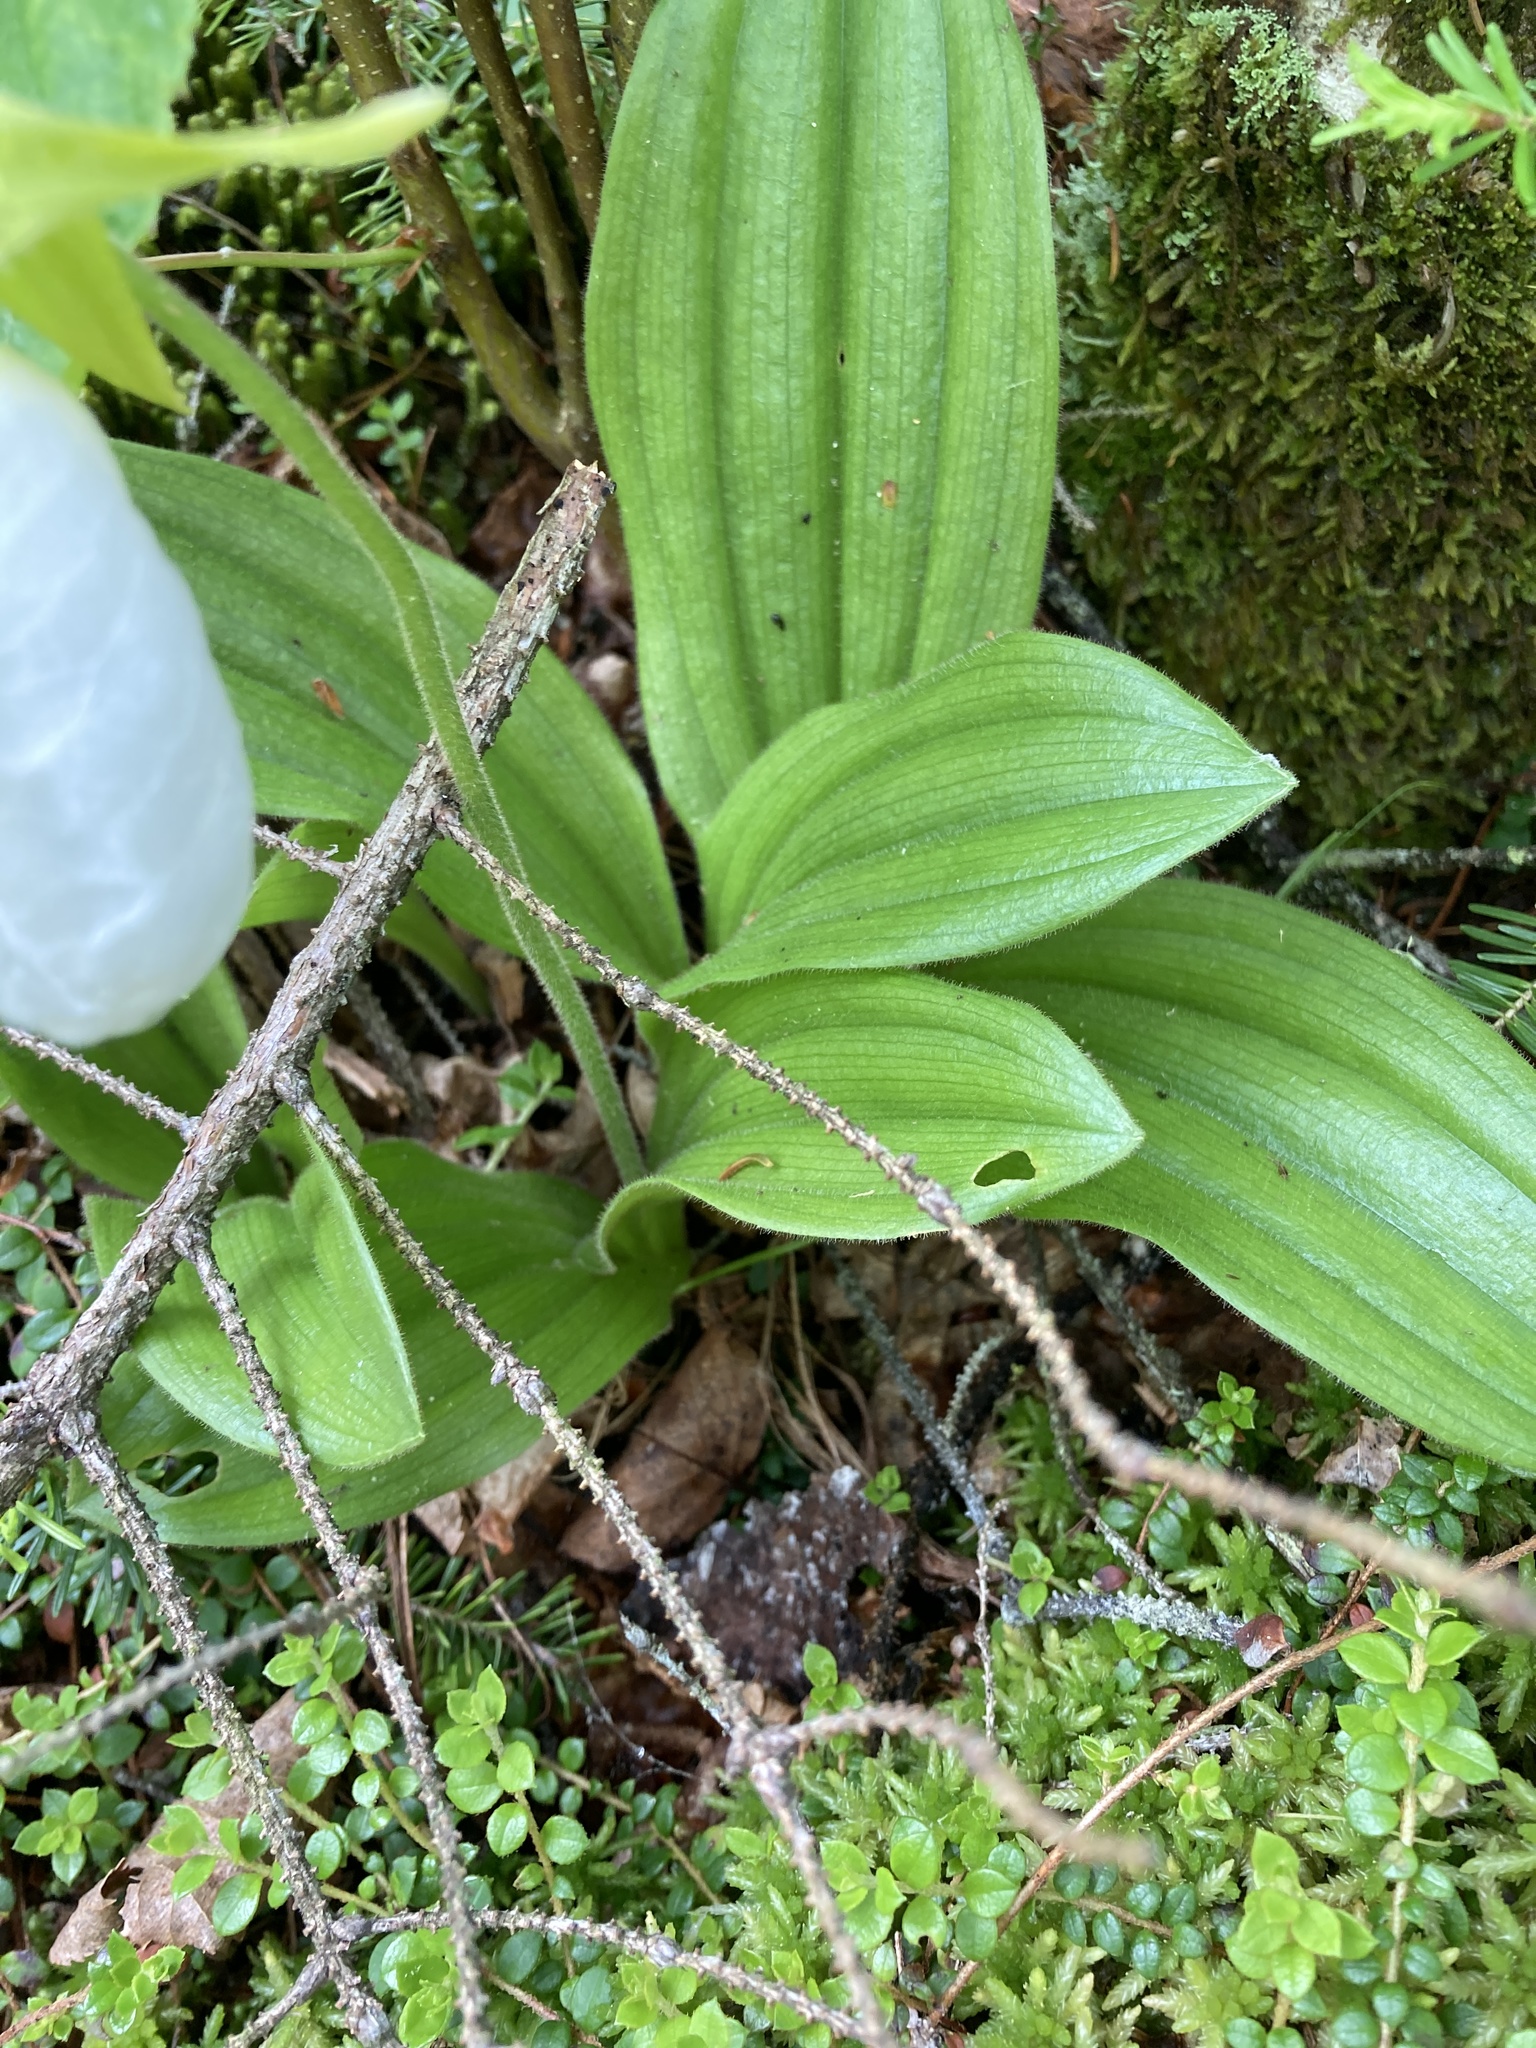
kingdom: Plantae
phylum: Tracheophyta
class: Liliopsida
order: Asparagales
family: Orchidaceae
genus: Cypripedium
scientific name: Cypripedium acaule
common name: Pink lady's-slipper
